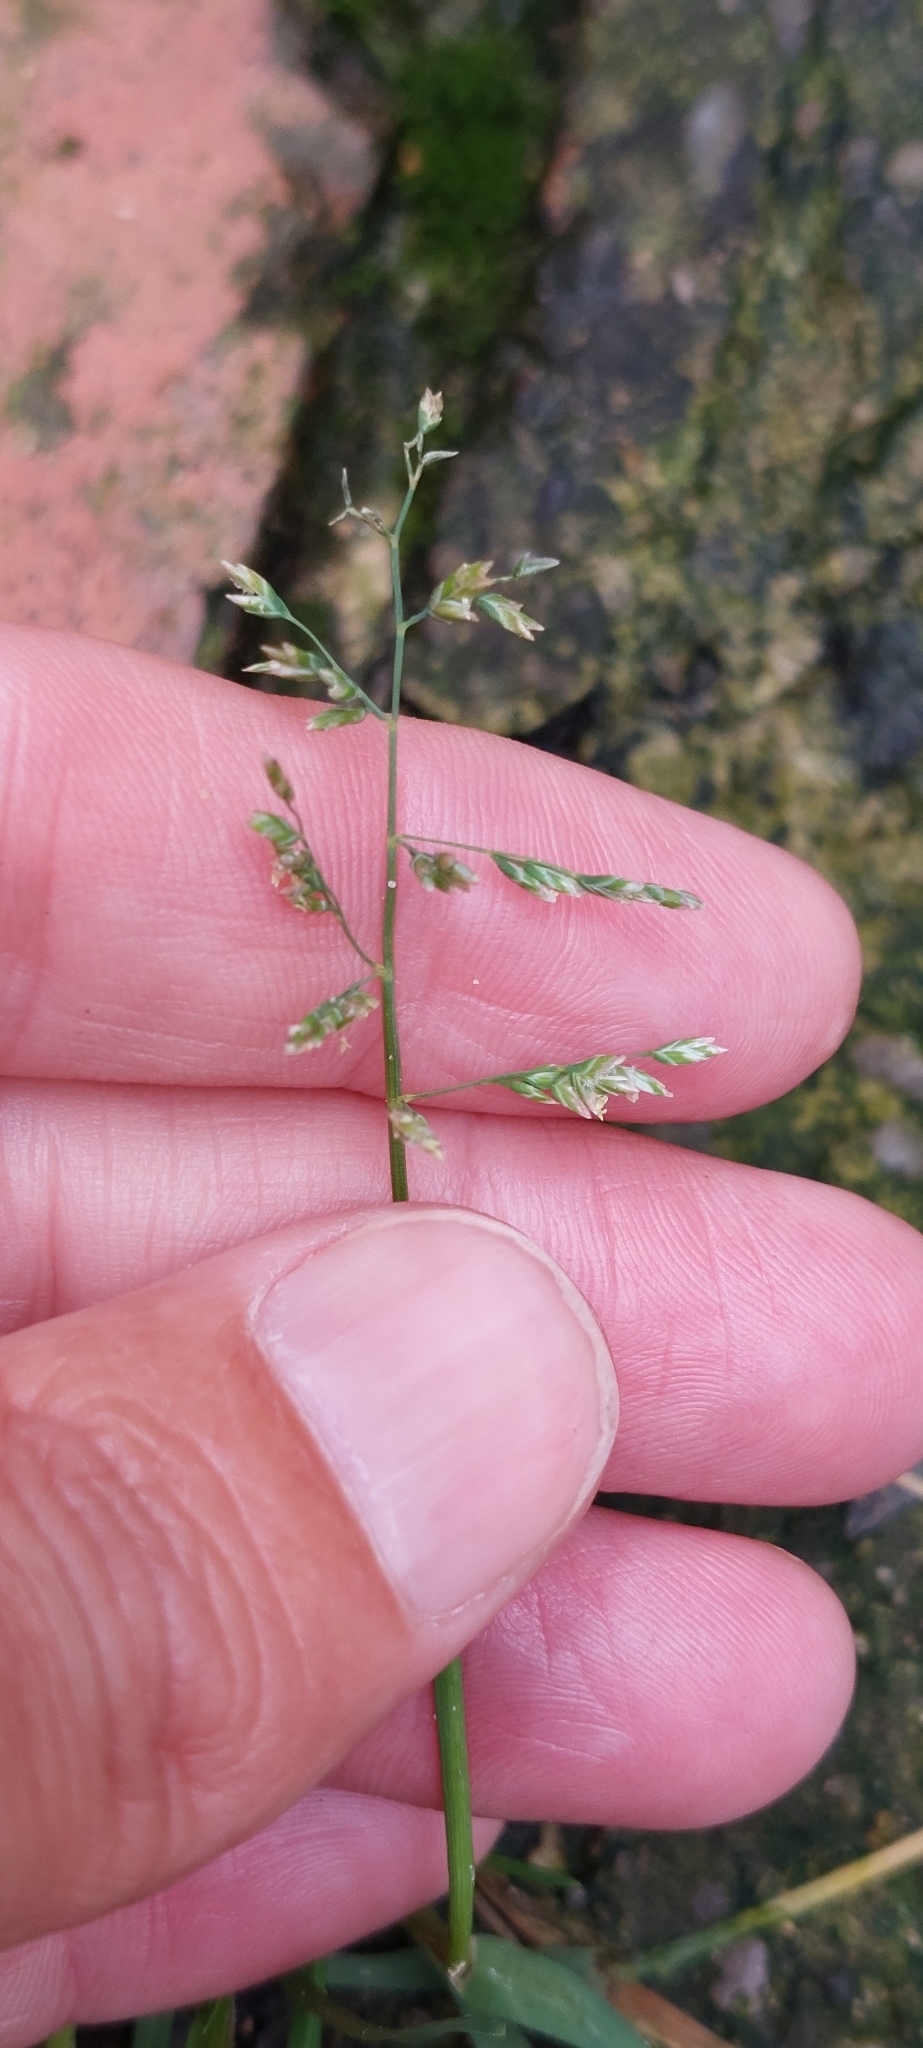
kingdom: Plantae
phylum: Tracheophyta
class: Liliopsida
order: Poales
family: Poaceae
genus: Poa
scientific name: Poa annua
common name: Annual bluegrass
